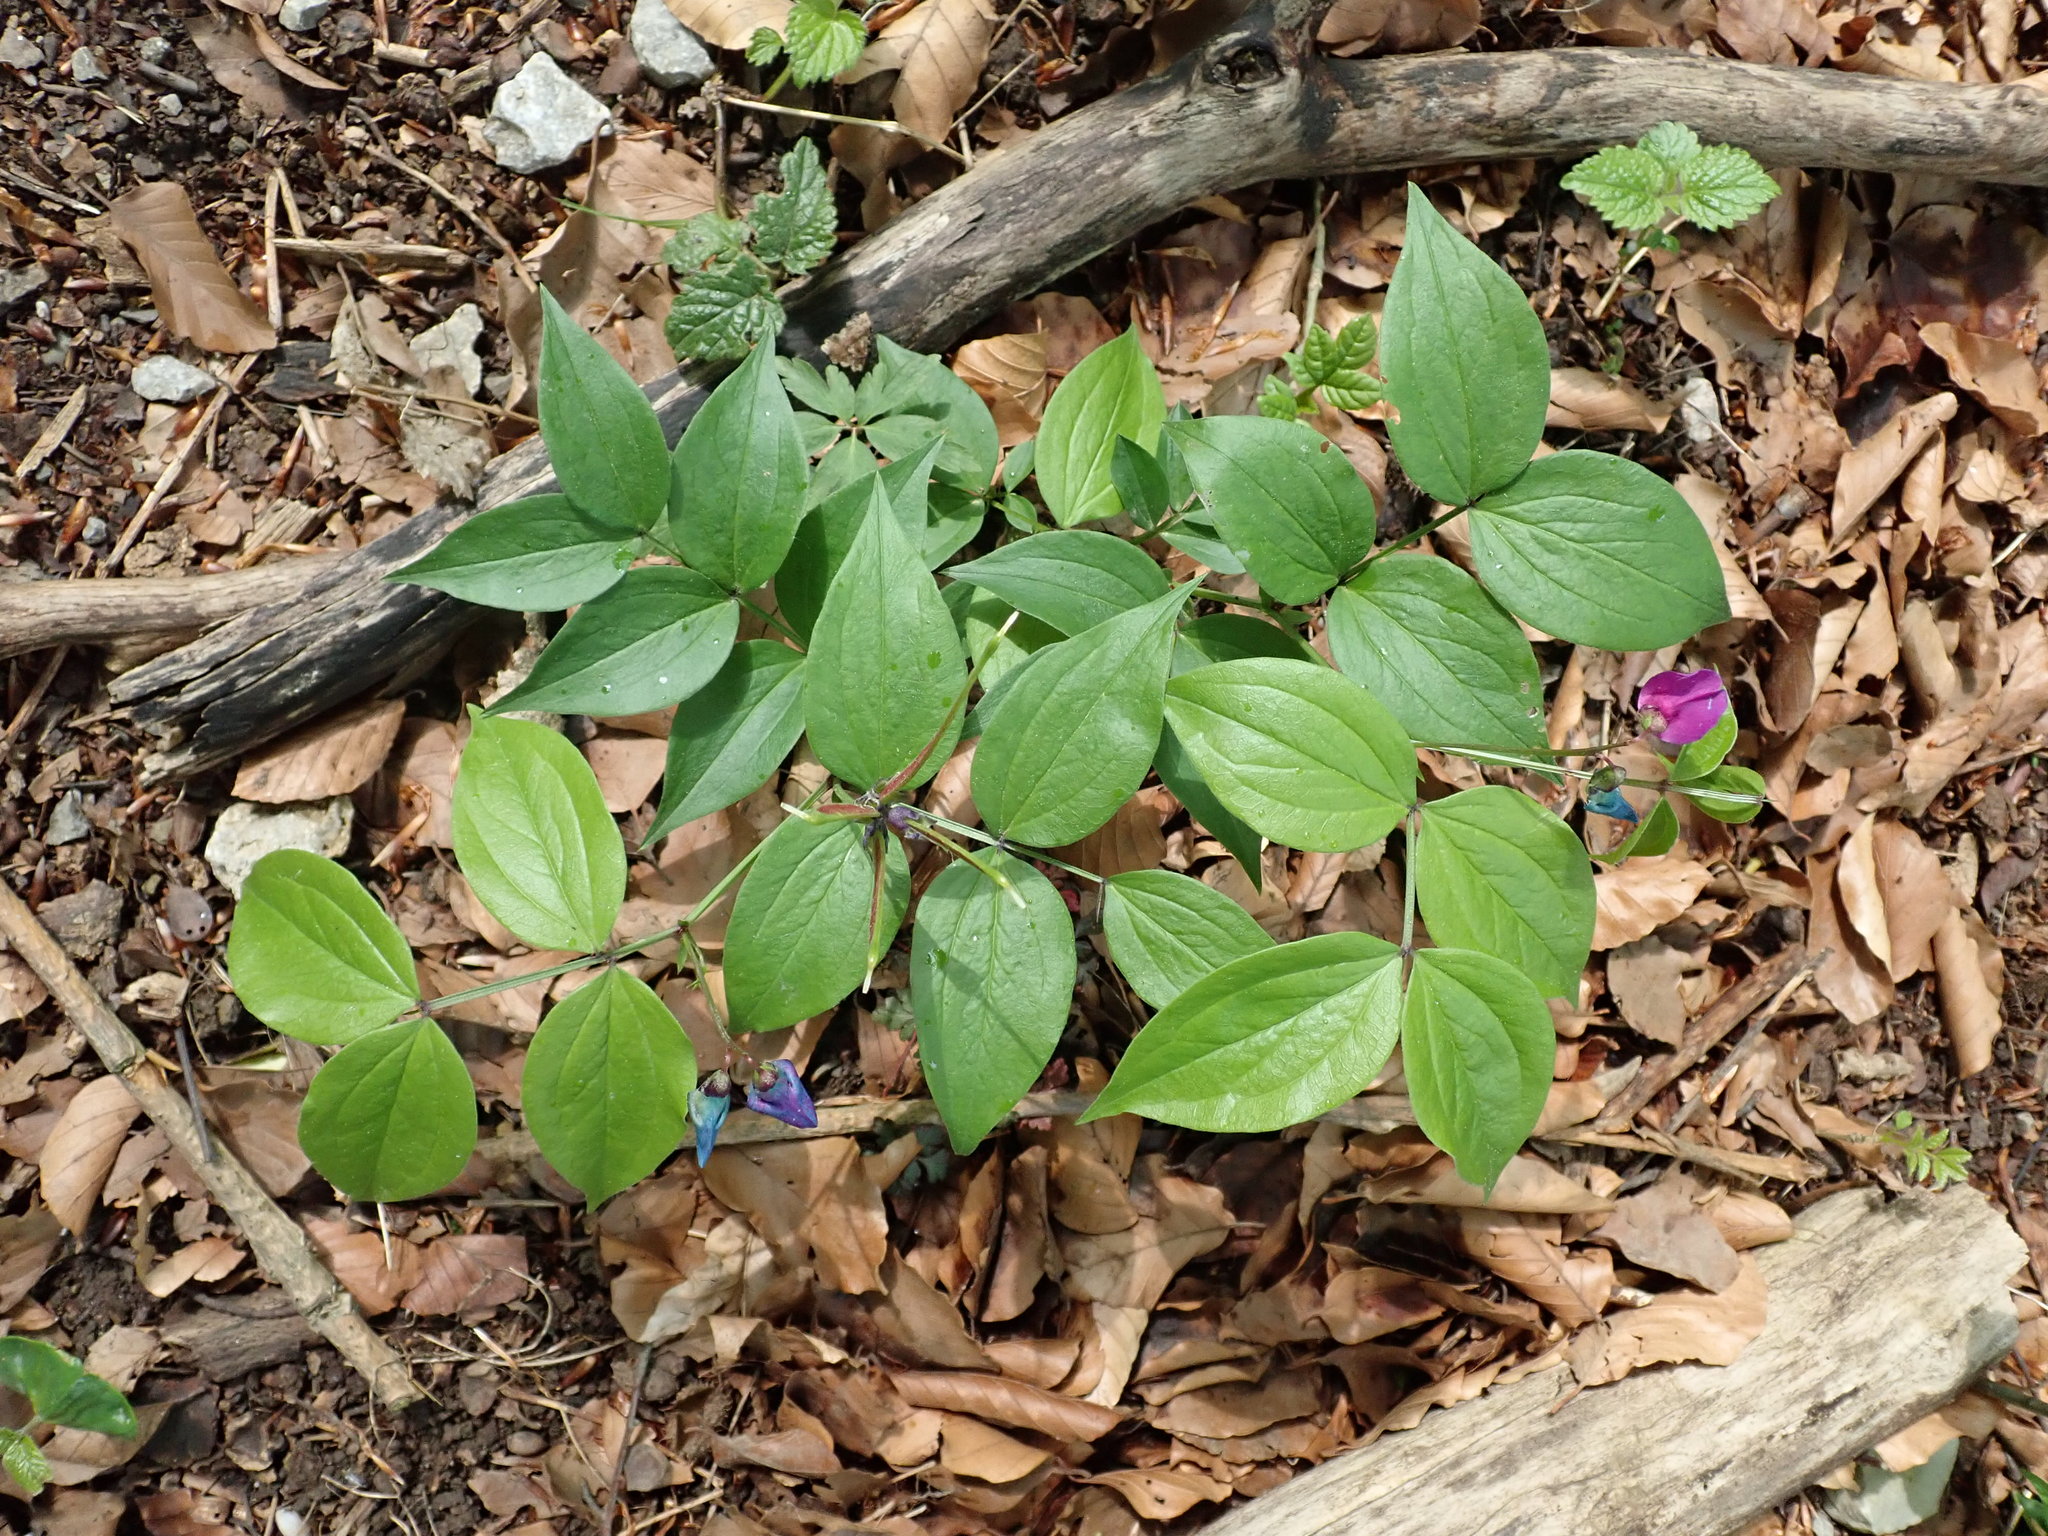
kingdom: Plantae
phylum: Tracheophyta
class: Magnoliopsida
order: Fabales
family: Fabaceae
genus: Lathyrus
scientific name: Lathyrus vernus
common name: Spring pea
